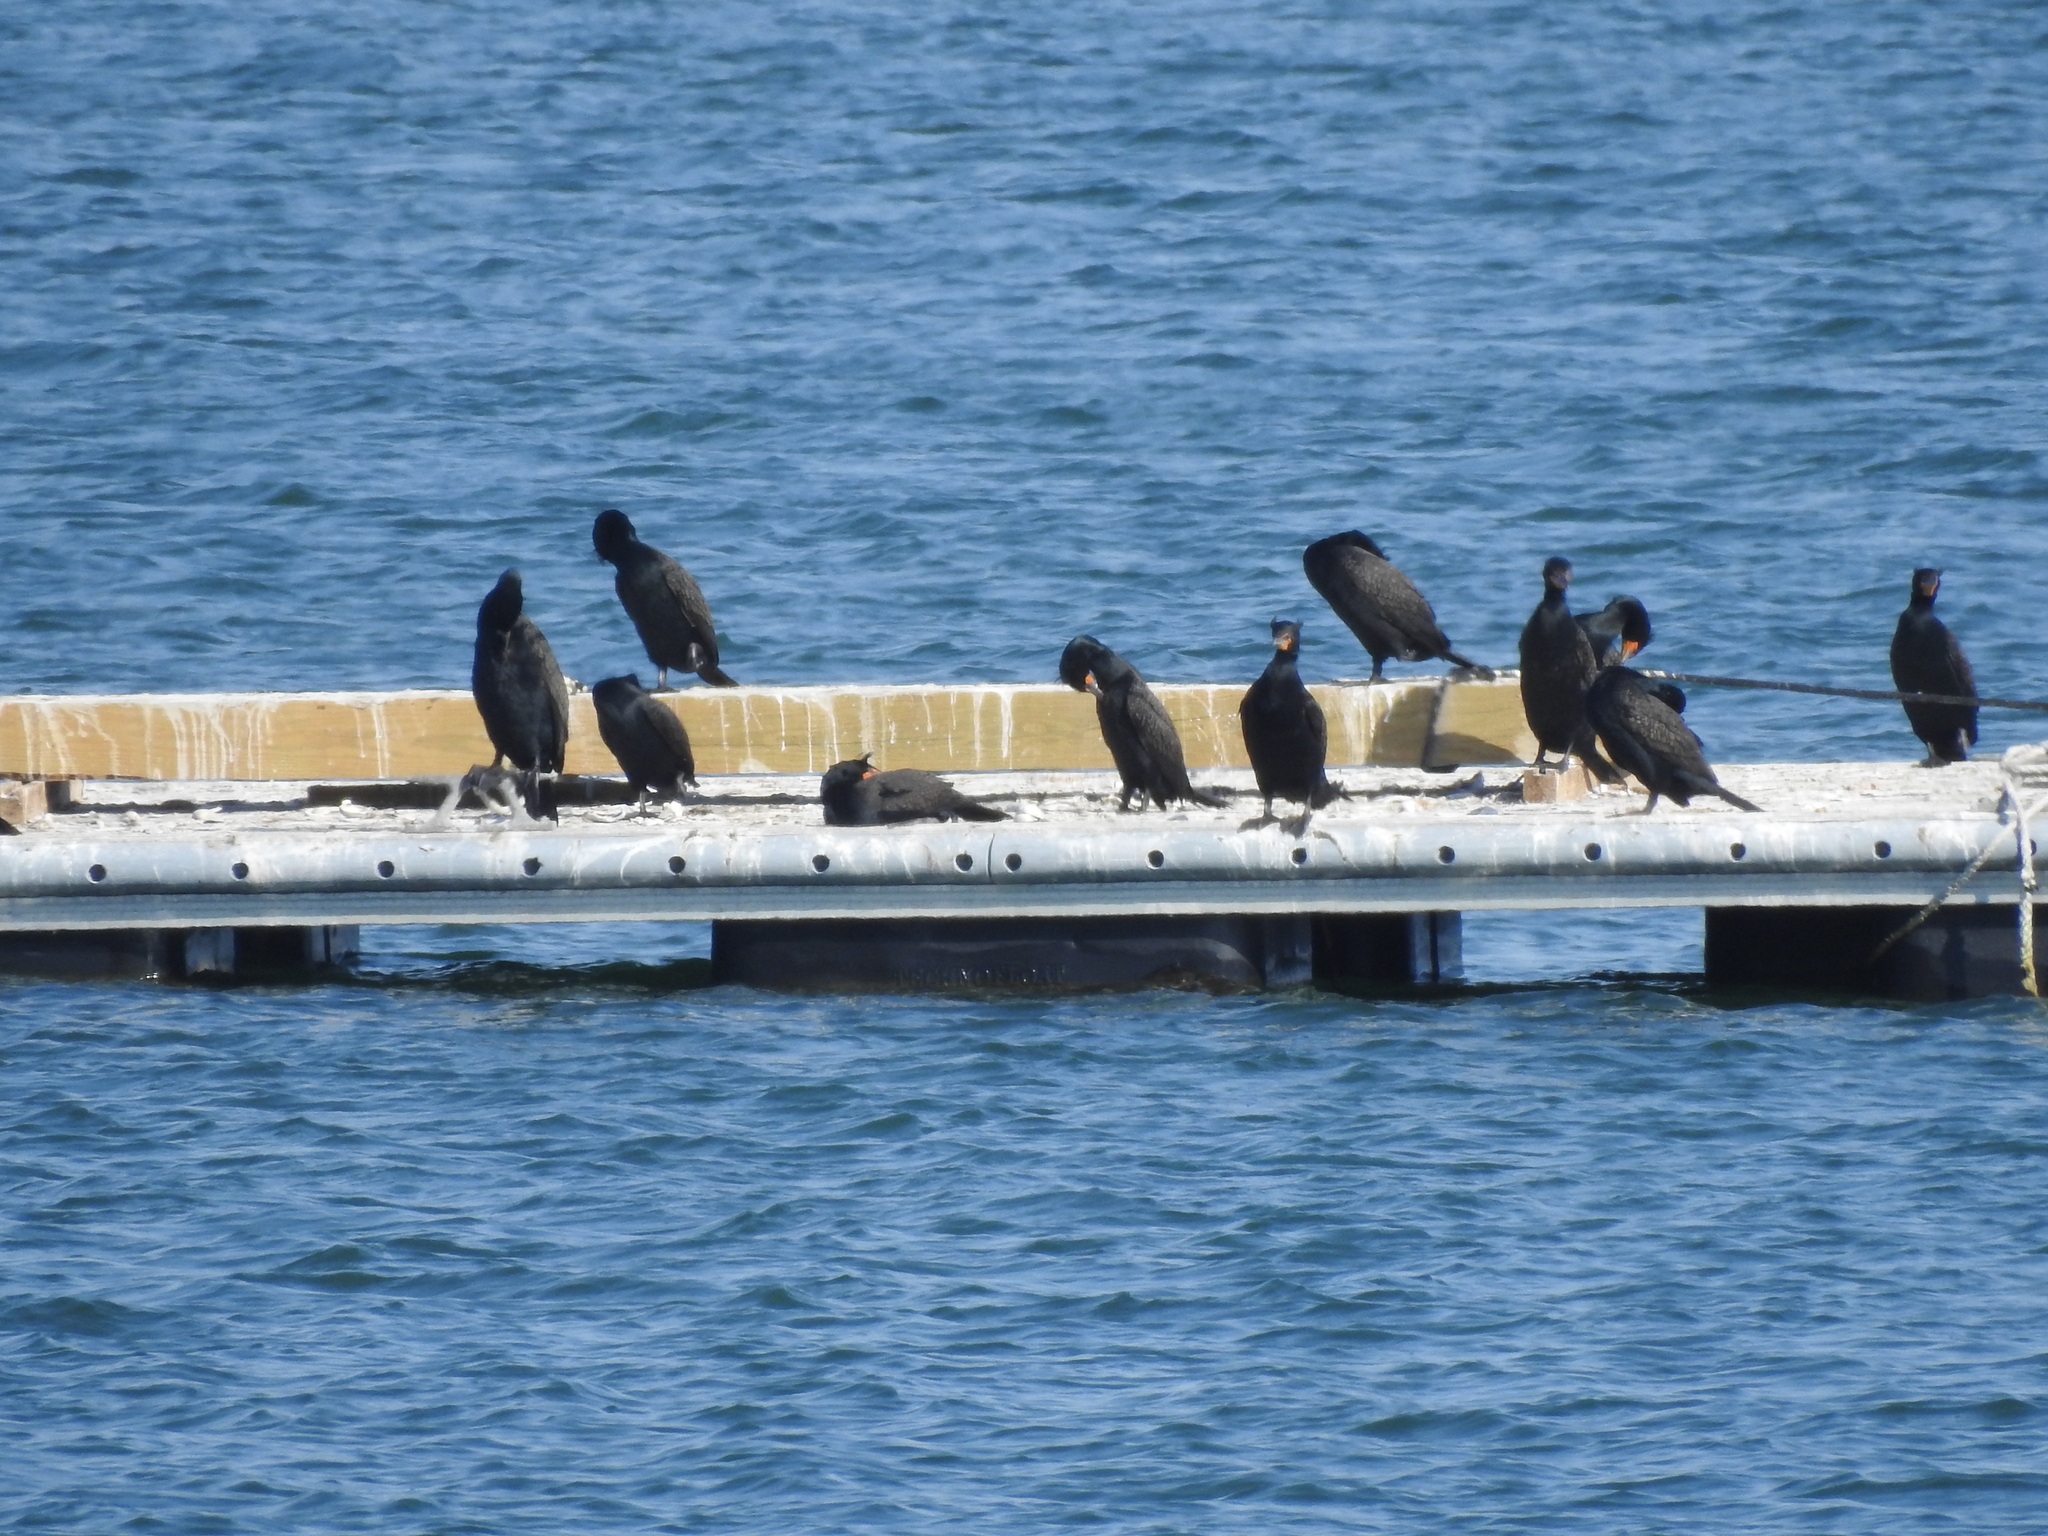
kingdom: Animalia
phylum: Chordata
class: Aves
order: Suliformes
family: Phalacrocoracidae
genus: Phalacrocorax
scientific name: Phalacrocorax auritus
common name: Double-crested cormorant
